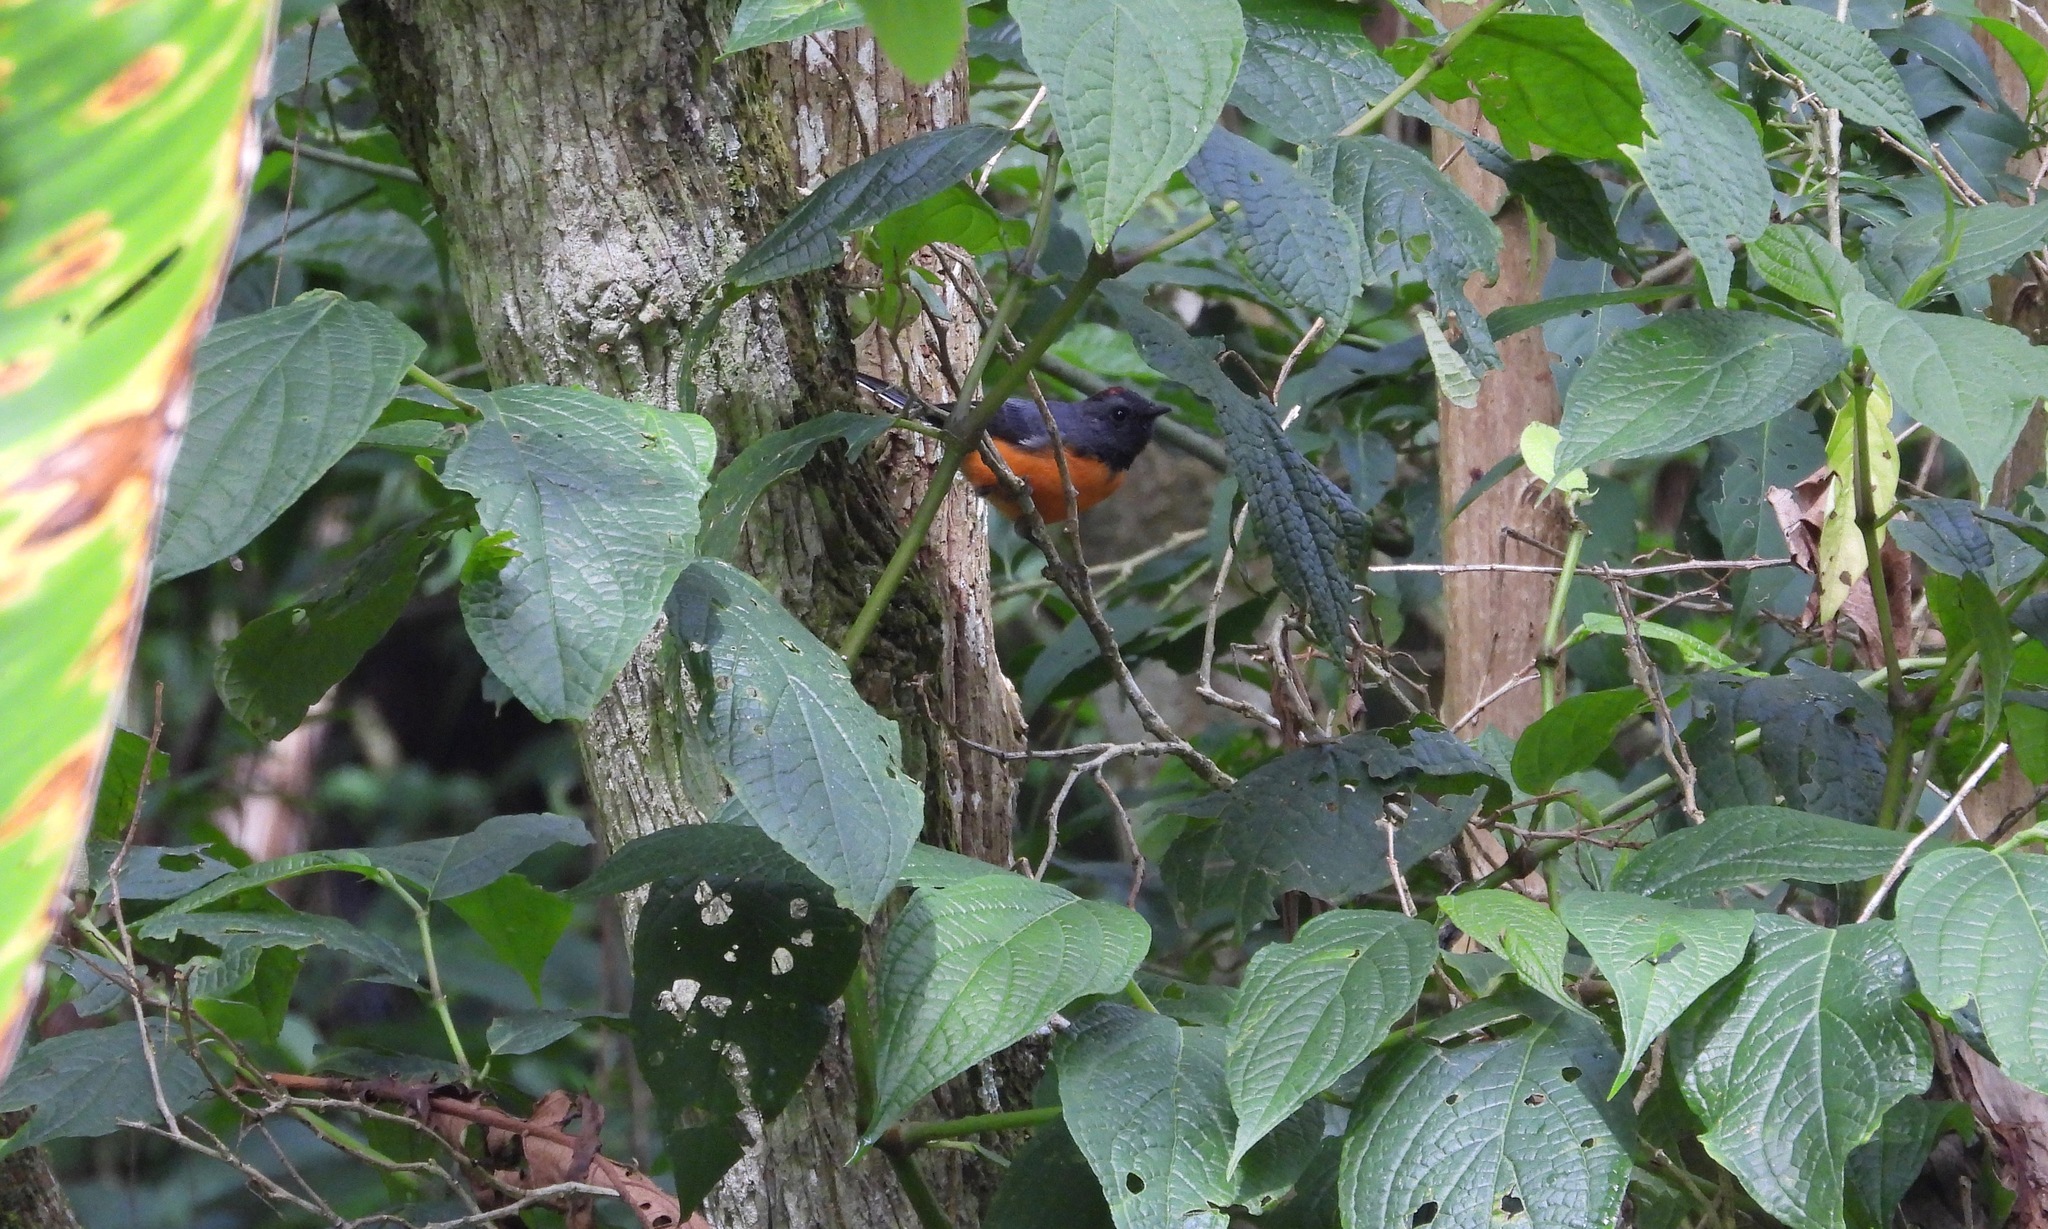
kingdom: Animalia
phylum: Chordata
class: Aves
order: Passeriformes
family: Parulidae
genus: Myioborus
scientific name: Myioborus miniatus
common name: Slate-throated redstart
